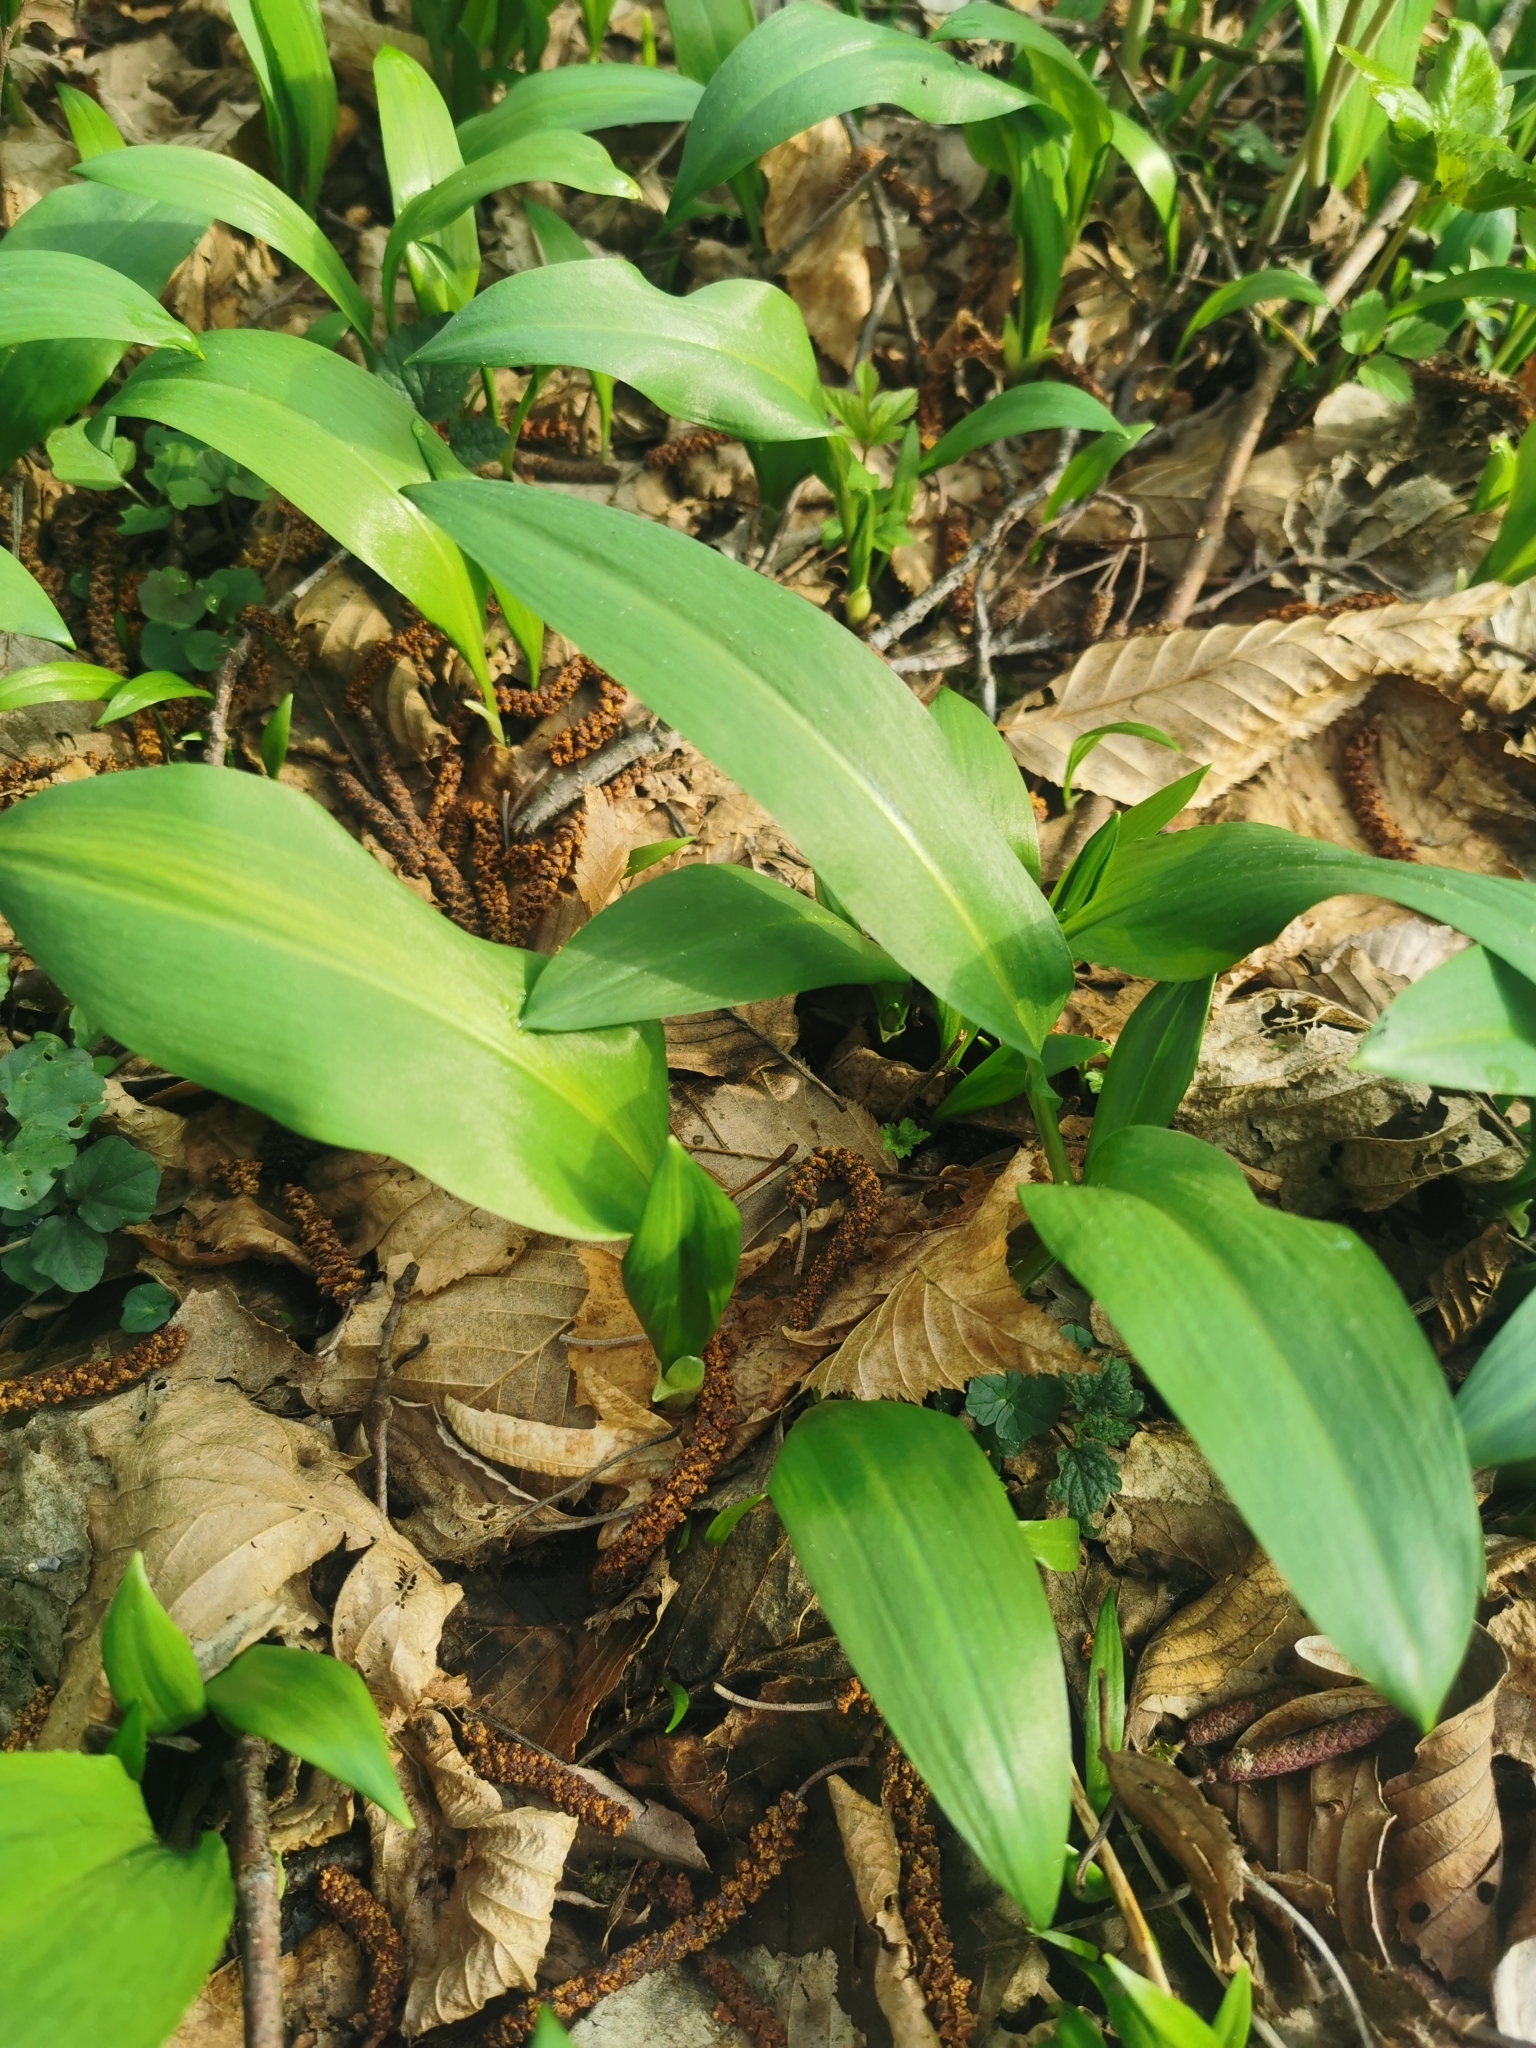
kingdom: Plantae
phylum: Tracheophyta
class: Liliopsida
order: Asparagales
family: Amaryllidaceae
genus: Allium
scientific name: Allium ursinum
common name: Ramsons
